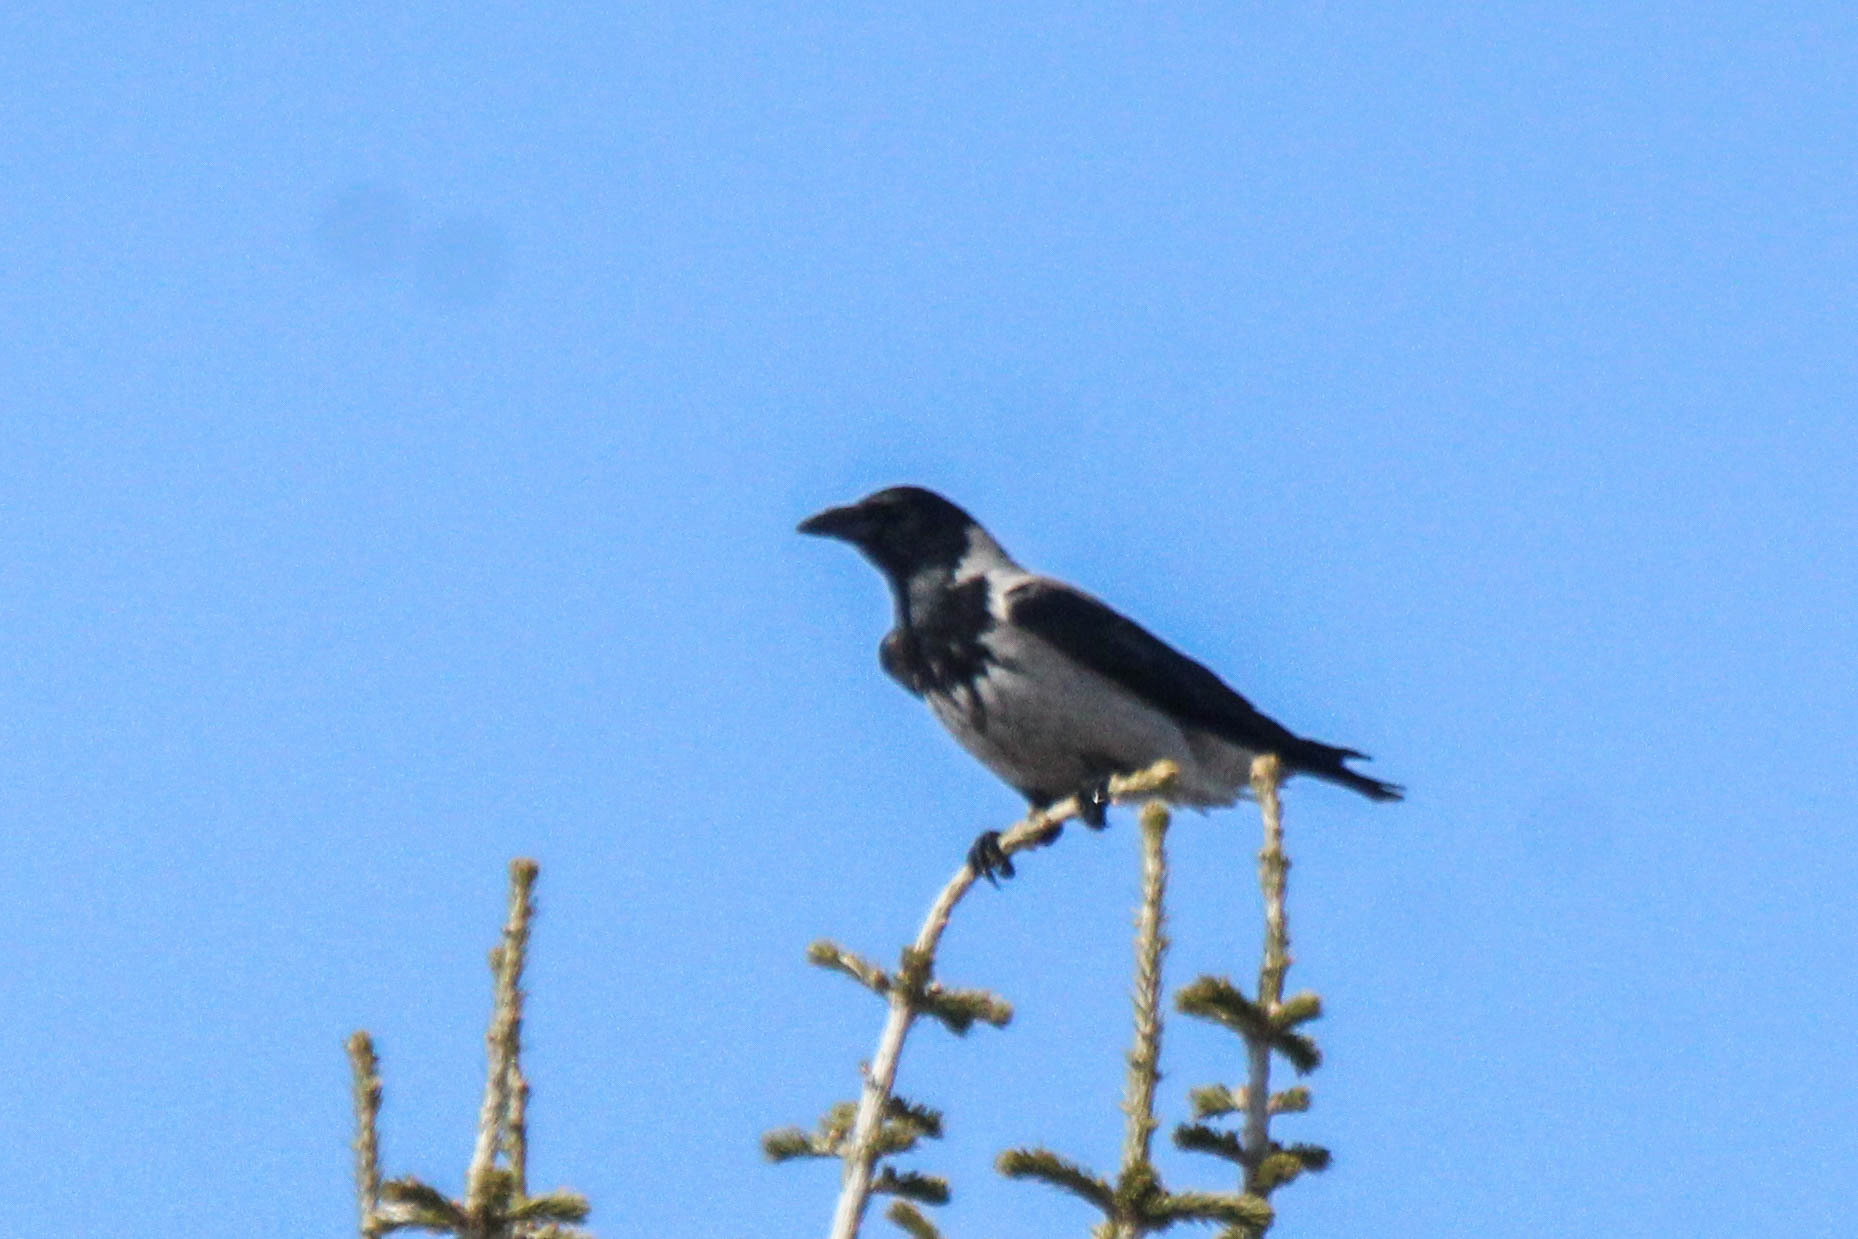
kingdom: Animalia
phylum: Chordata
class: Aves
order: Passeriformes
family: Corvidae
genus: Corvus
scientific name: Corvus cornix
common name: Hooded crow
